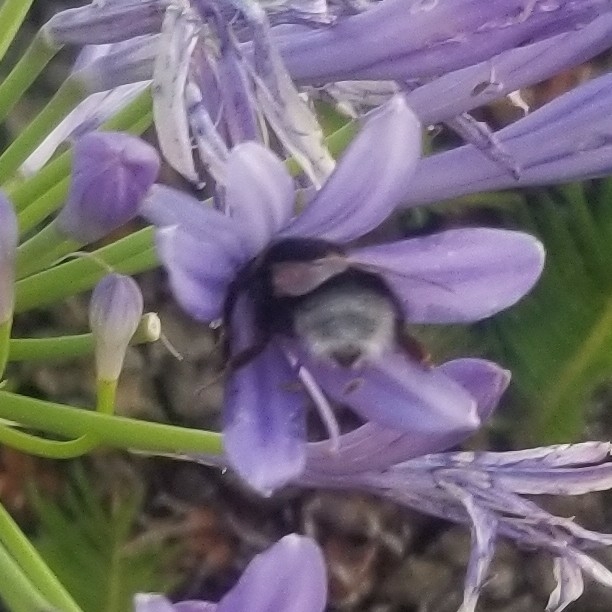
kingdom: Animalia
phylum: Arthropoda
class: Insecta
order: Hymenoptera
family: Apidae
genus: Bombus
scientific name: Bombus
